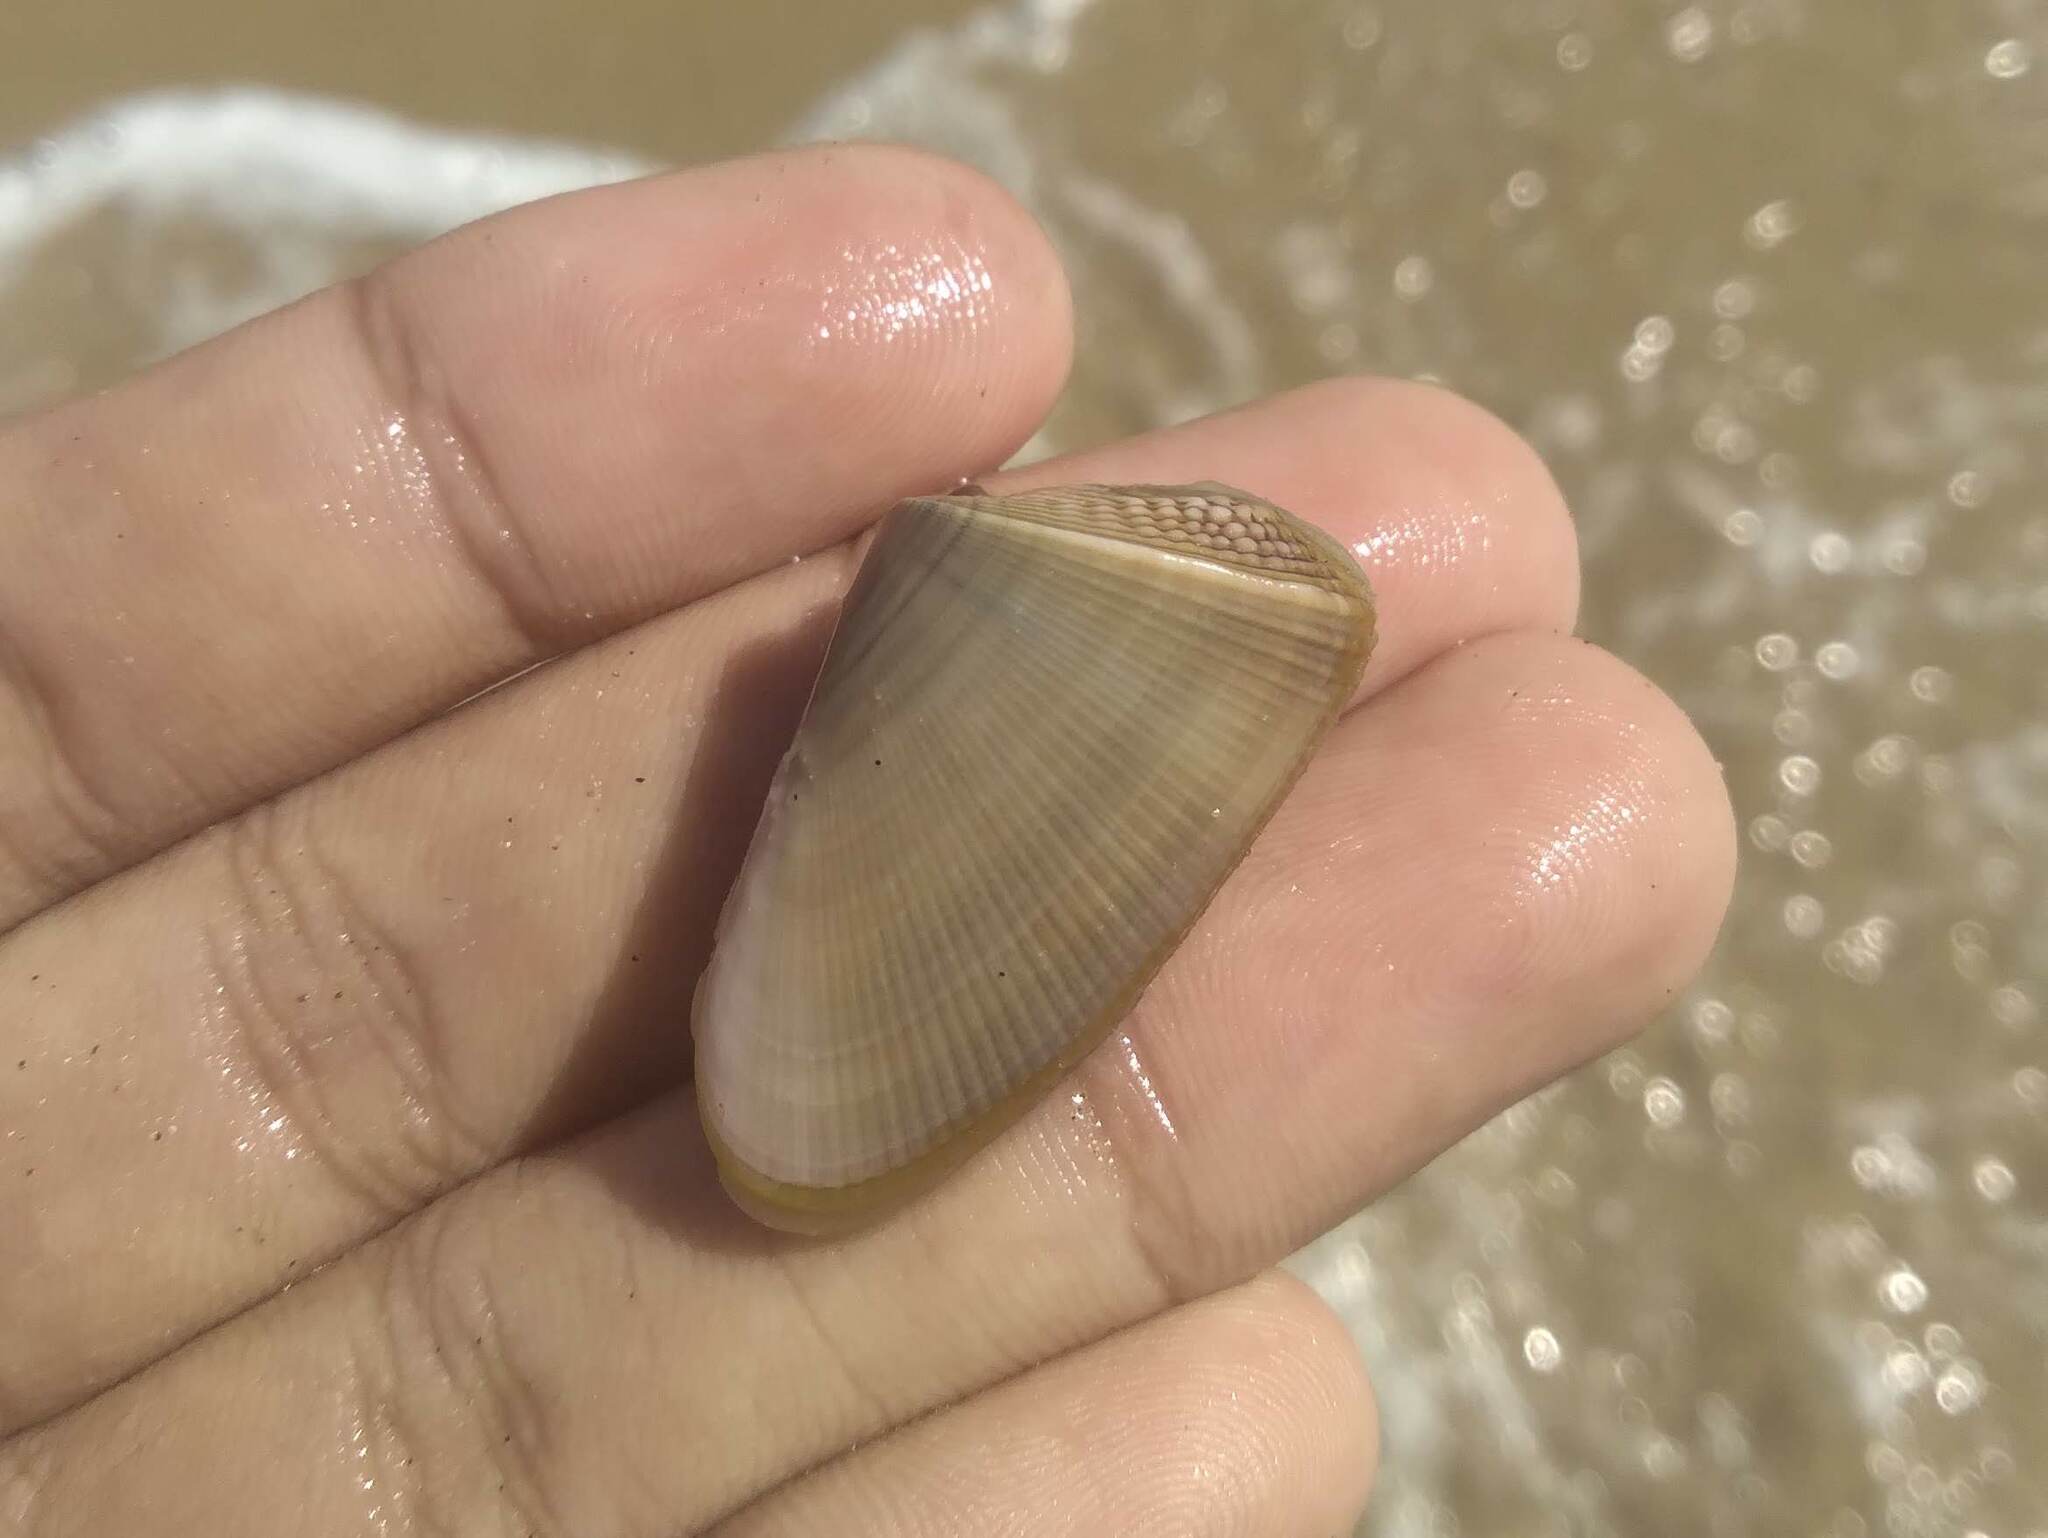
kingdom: Animalia
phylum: Mollusca
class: Bivalvia
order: Cardiida
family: Donacidae
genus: Donax
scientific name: Donax hanleyanus
